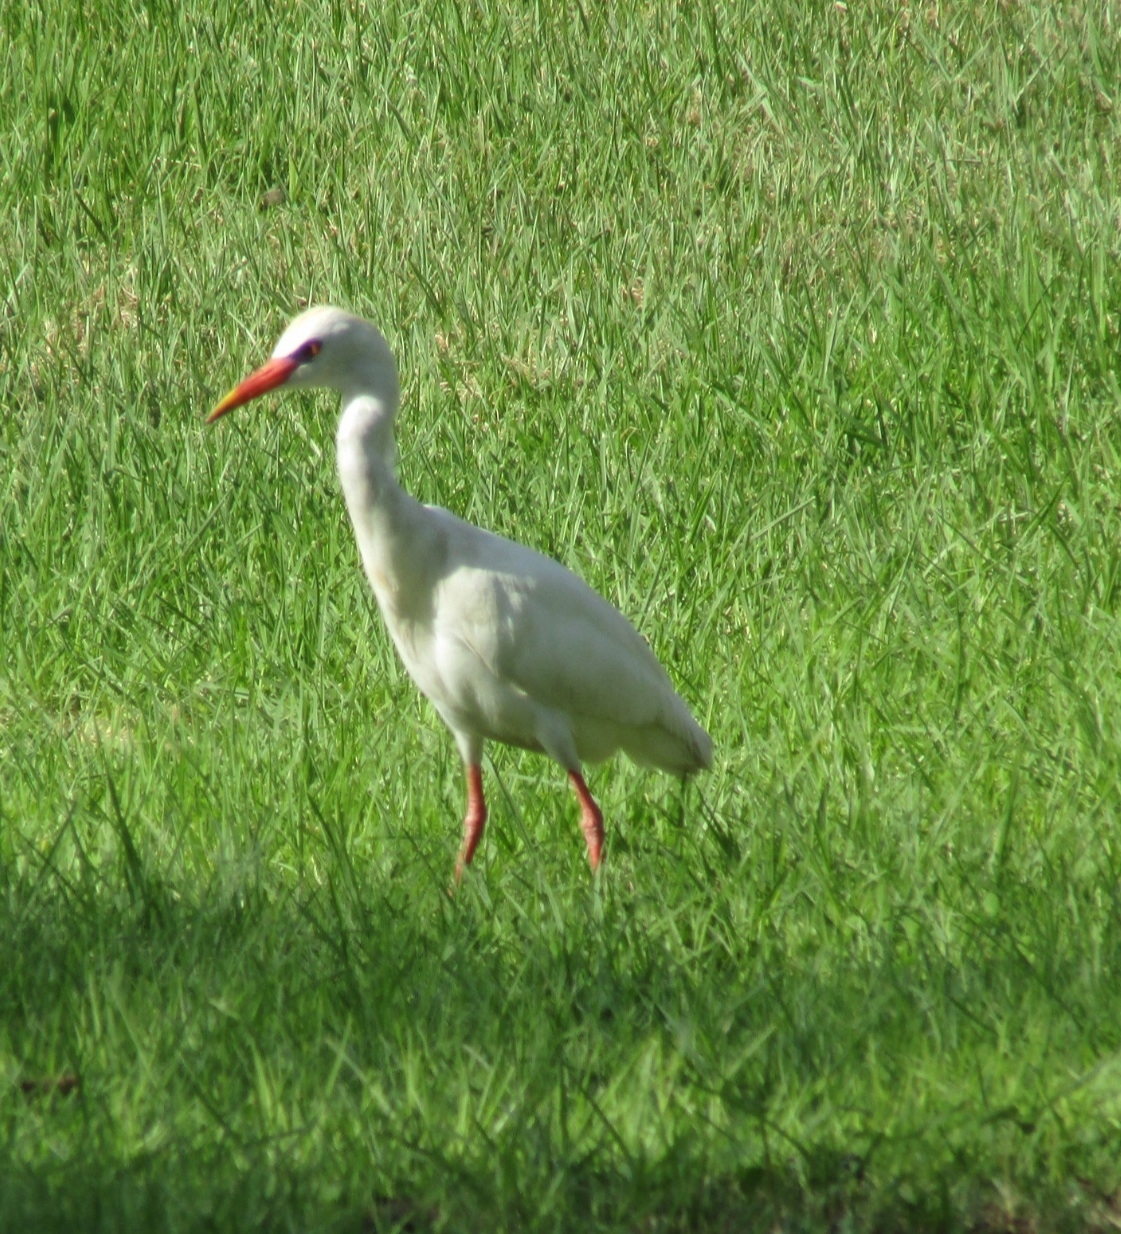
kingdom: Animalia
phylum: Chordata
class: Aves
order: Pelecaniformes
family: Ardeidae
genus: Bubulcus
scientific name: Bubulcus ibis
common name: Cattle egret
